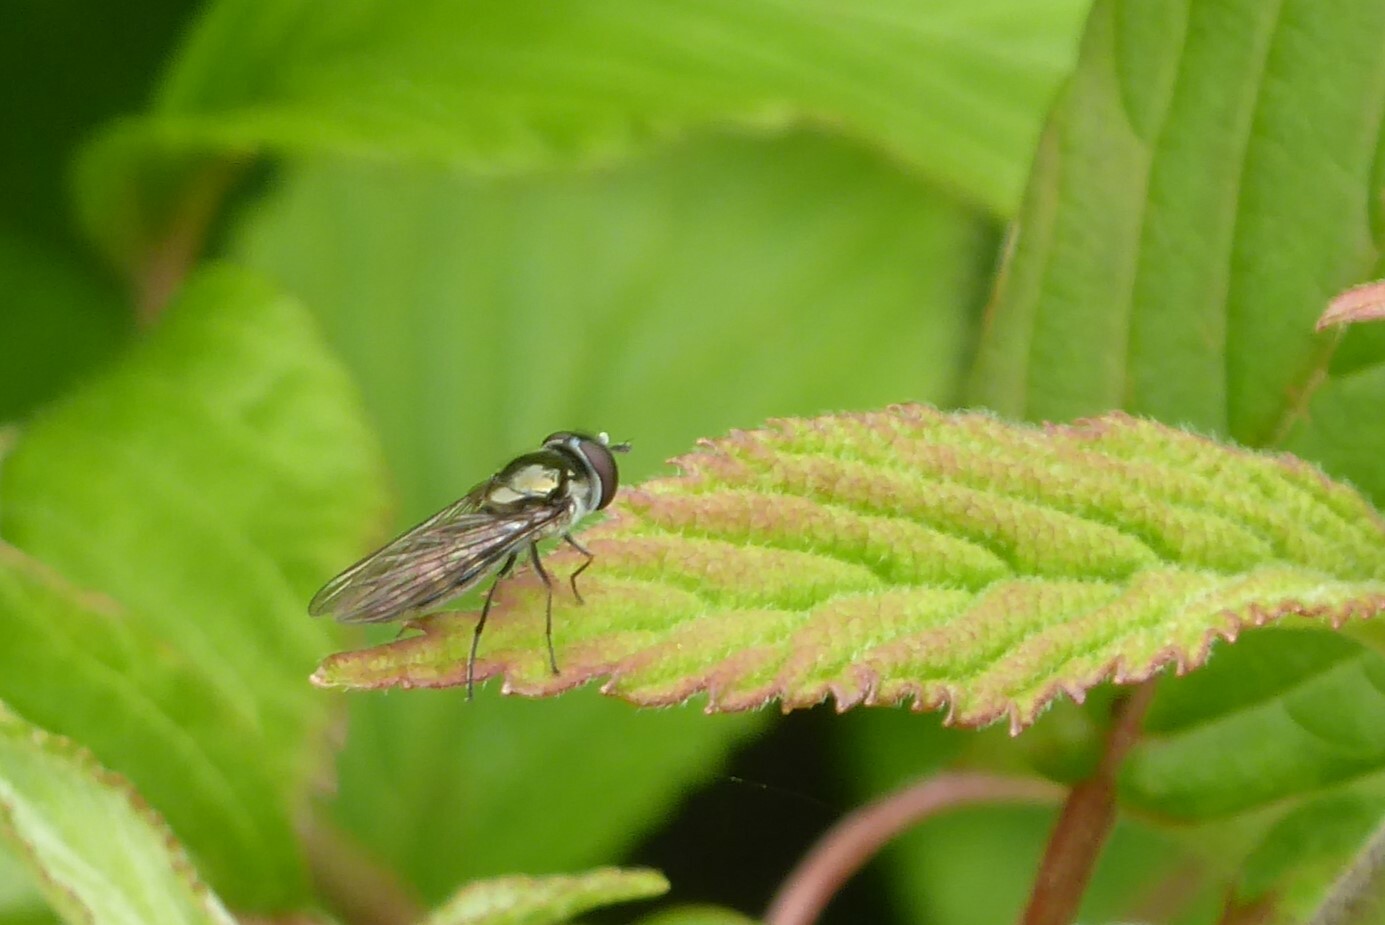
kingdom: Animalia
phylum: Arthropoda
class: Insecta
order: Diptera
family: Syrphidae
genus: Melangyna
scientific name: Melangyna novaezelandiae
